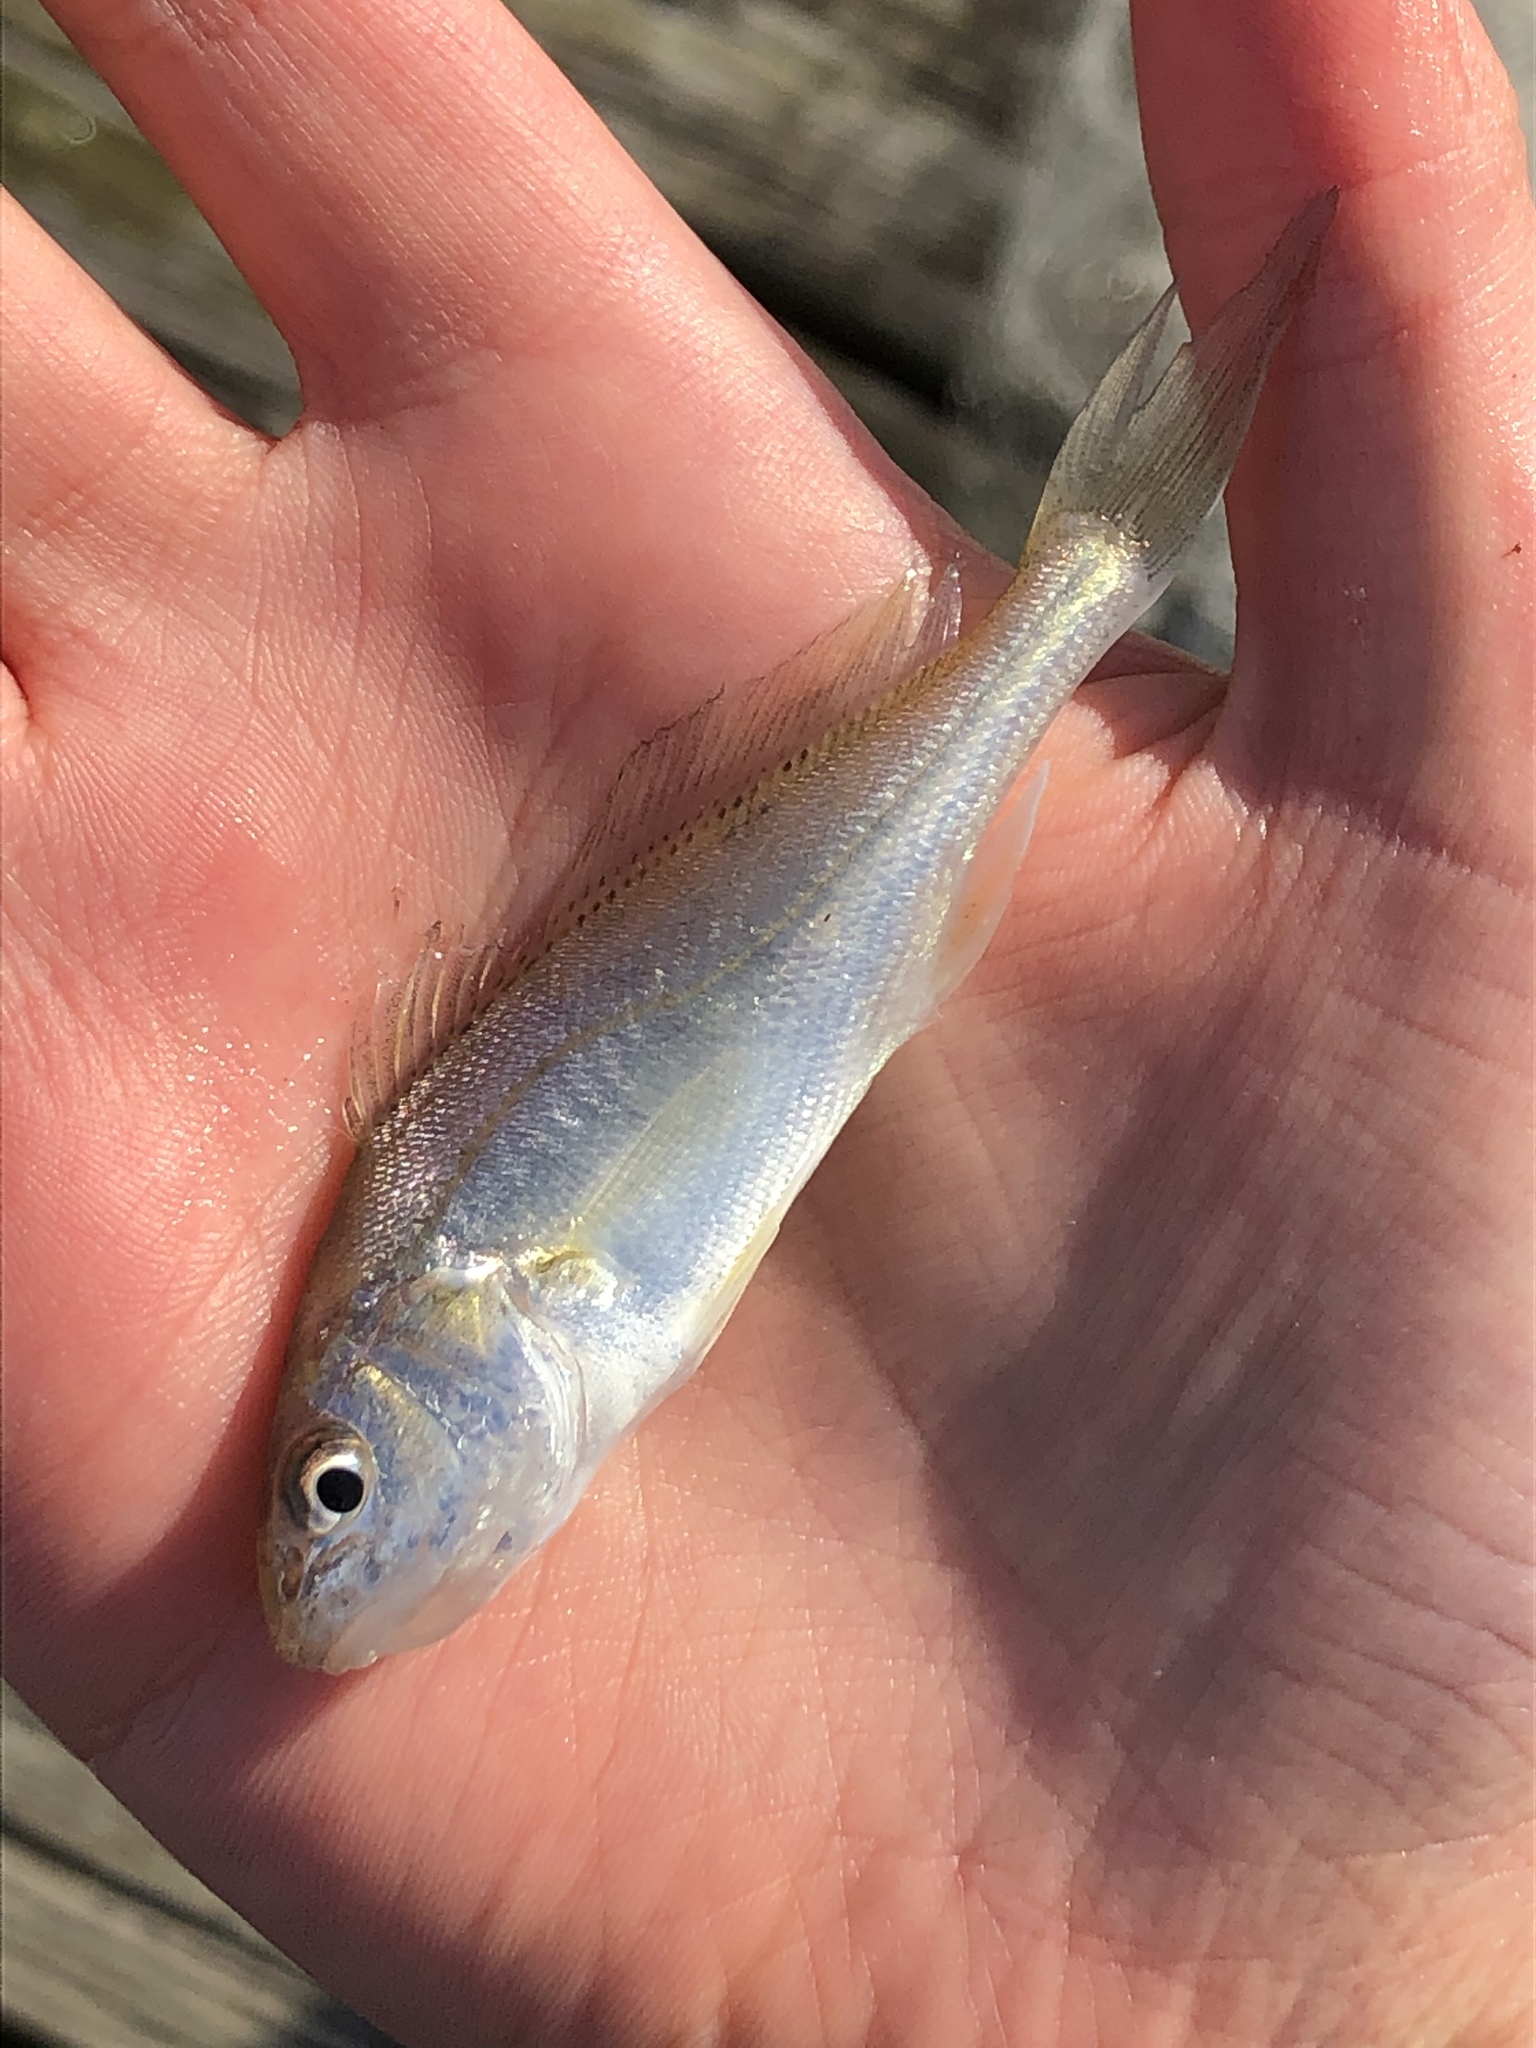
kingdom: Animalia
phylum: Chordata
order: Perciformes
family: Sciaenidae
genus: Micropogonias
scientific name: Micropogonias undulatus
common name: Atlantic croaker
